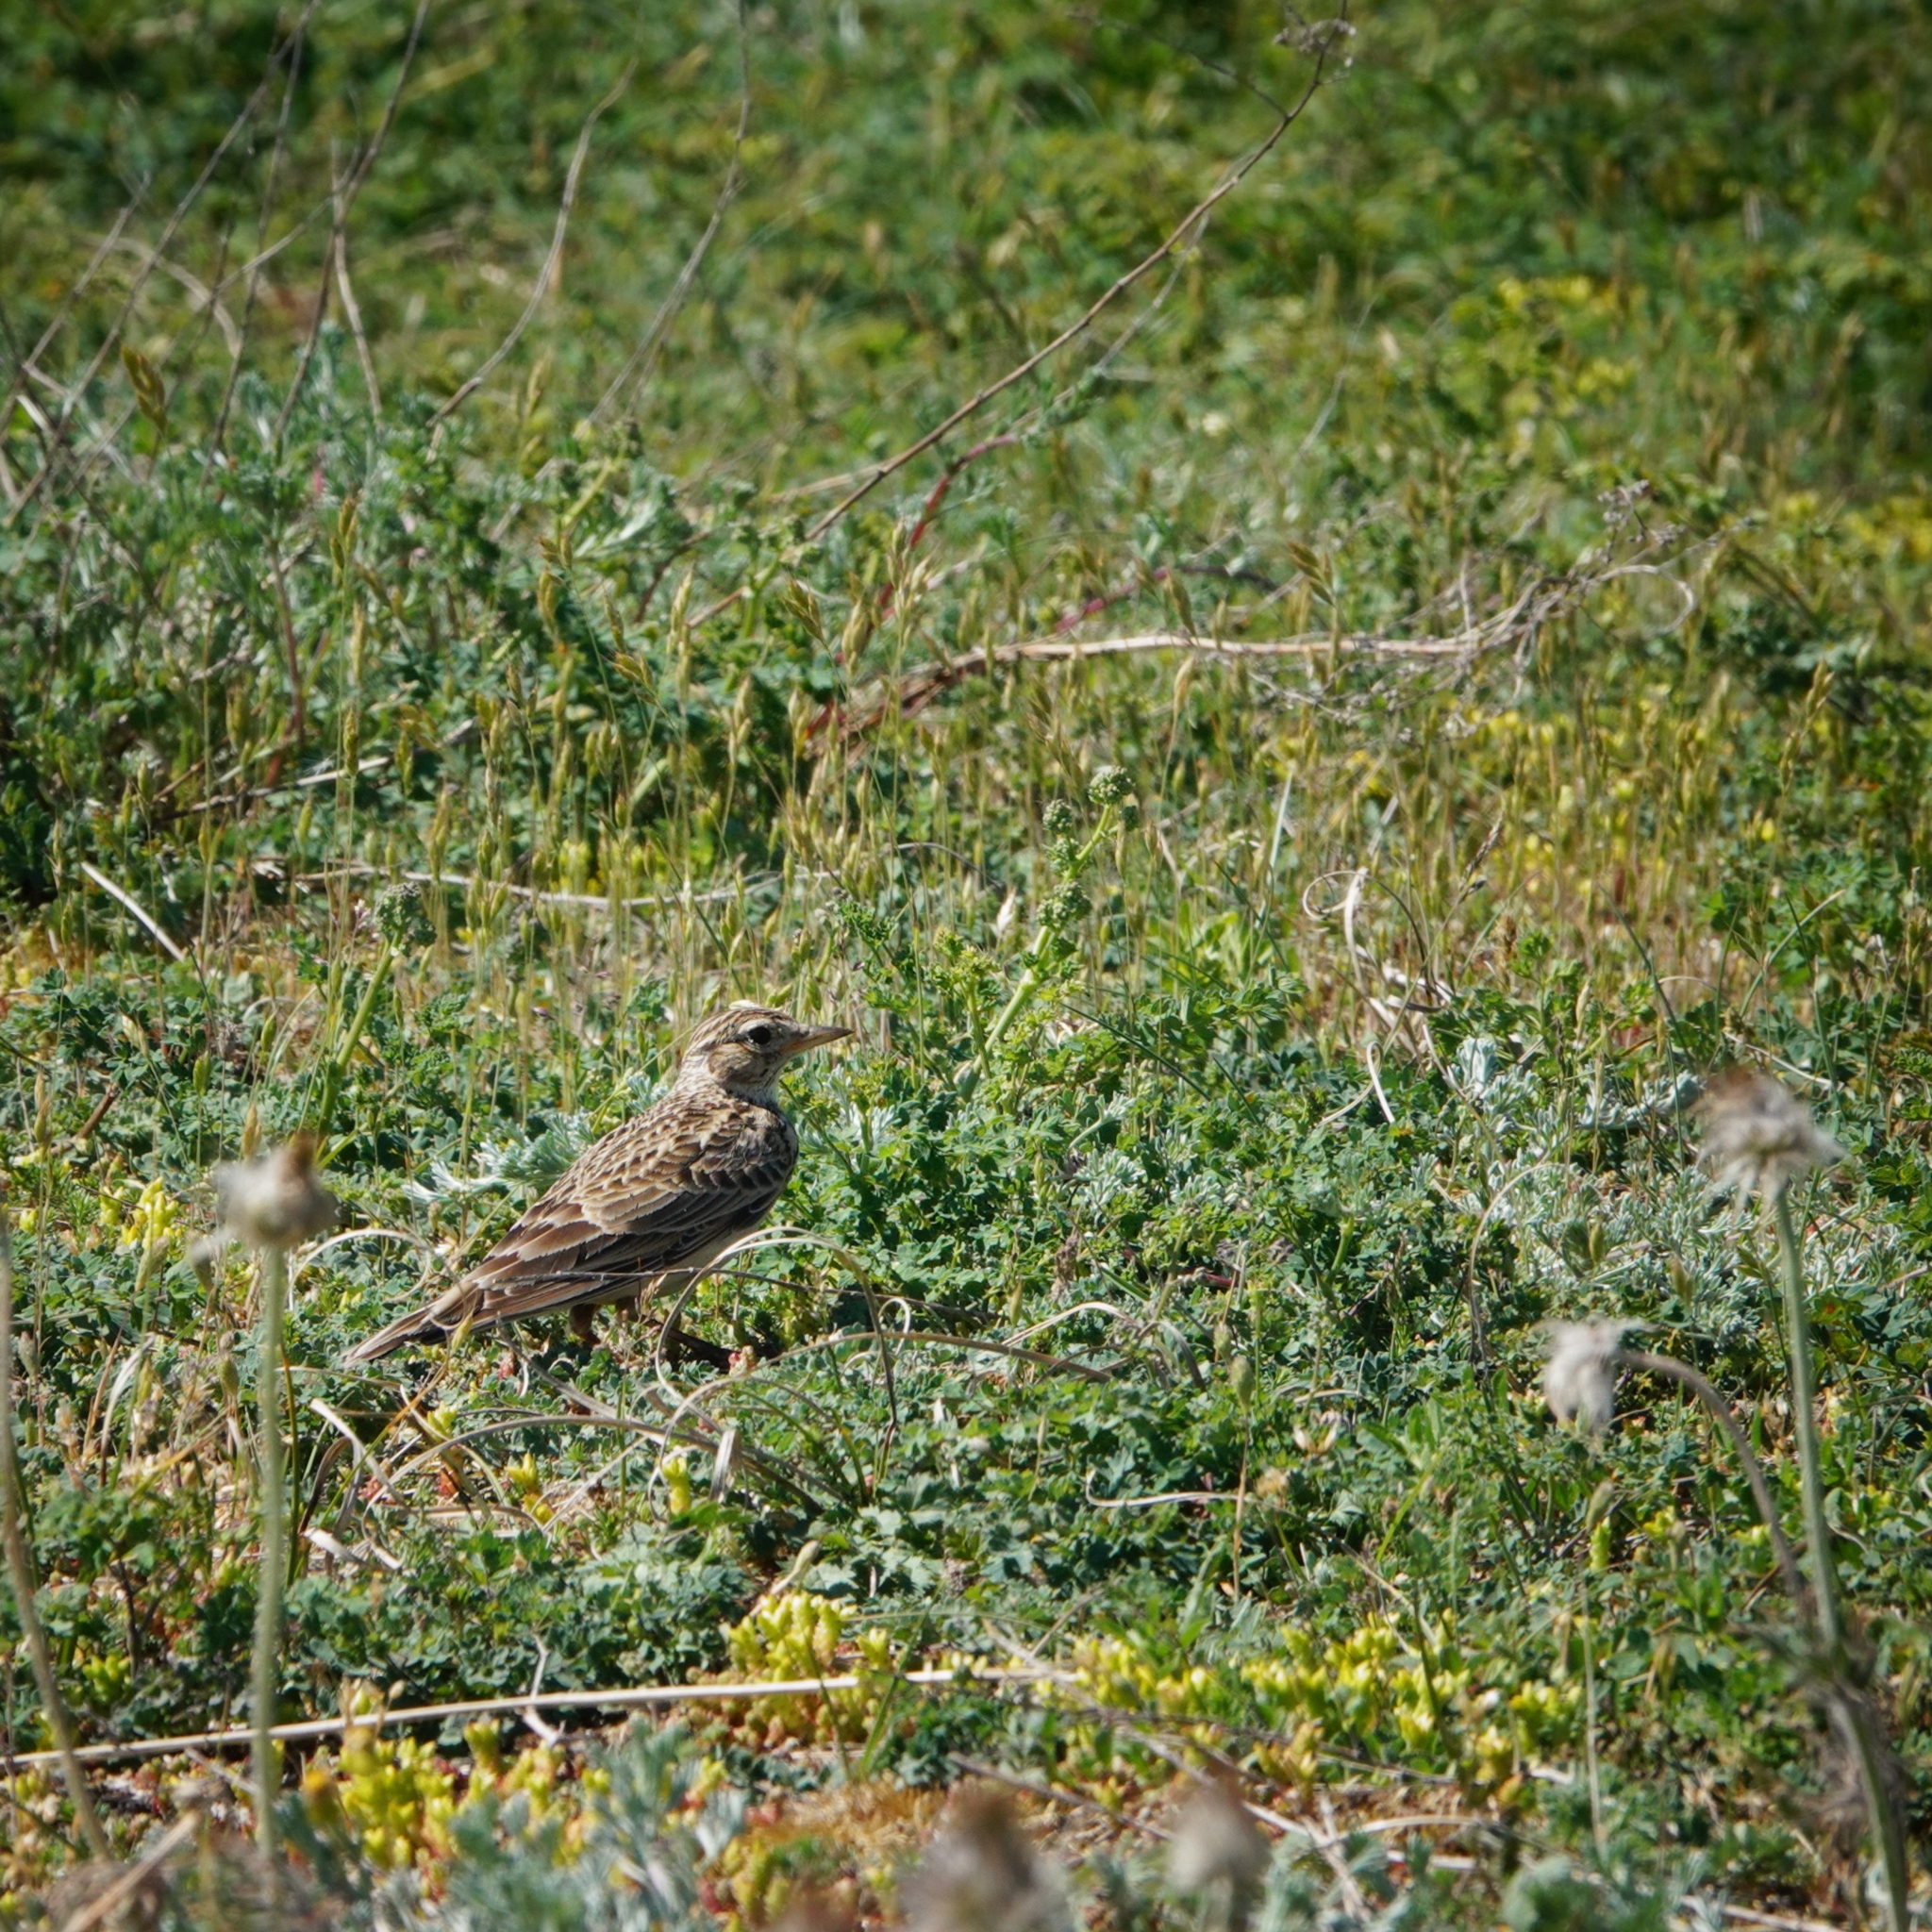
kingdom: Animalia
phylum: Chordata
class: Aves
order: Passeriformes
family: Alaudidae
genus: Alauda
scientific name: Alauda arvensis
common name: Eurasian skylark
